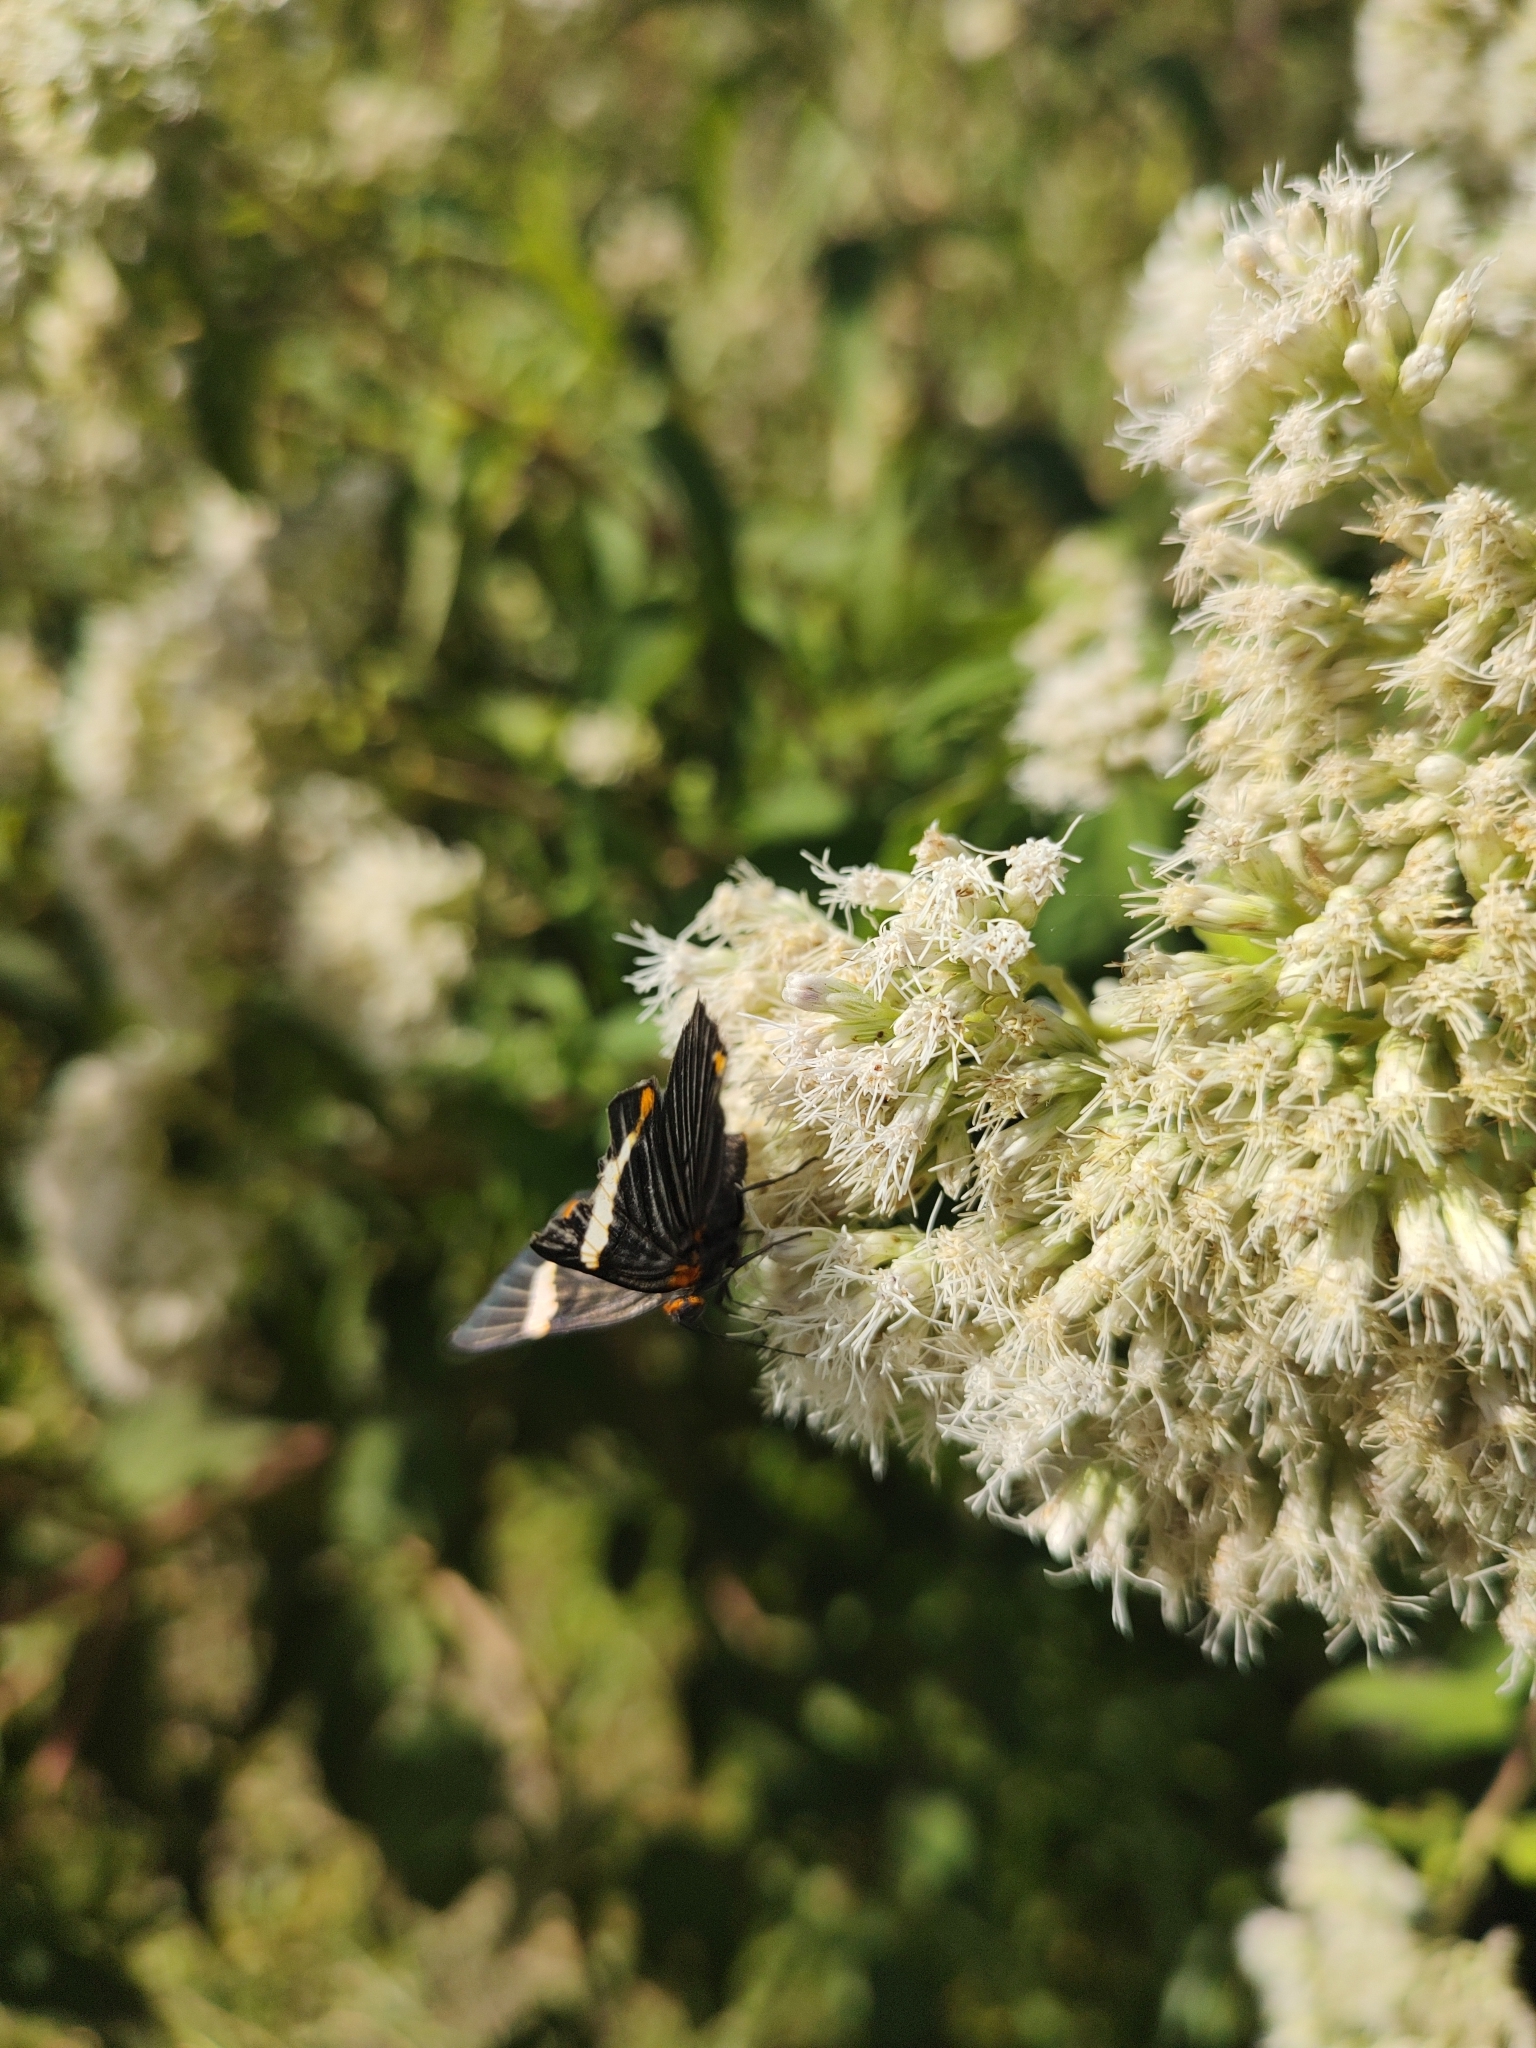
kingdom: Animalia
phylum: Arthropoda
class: Insecta
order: Lepidoptera
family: Riodinidae
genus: Riodina
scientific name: Riodina lycisca
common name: Lycisca metalmark
